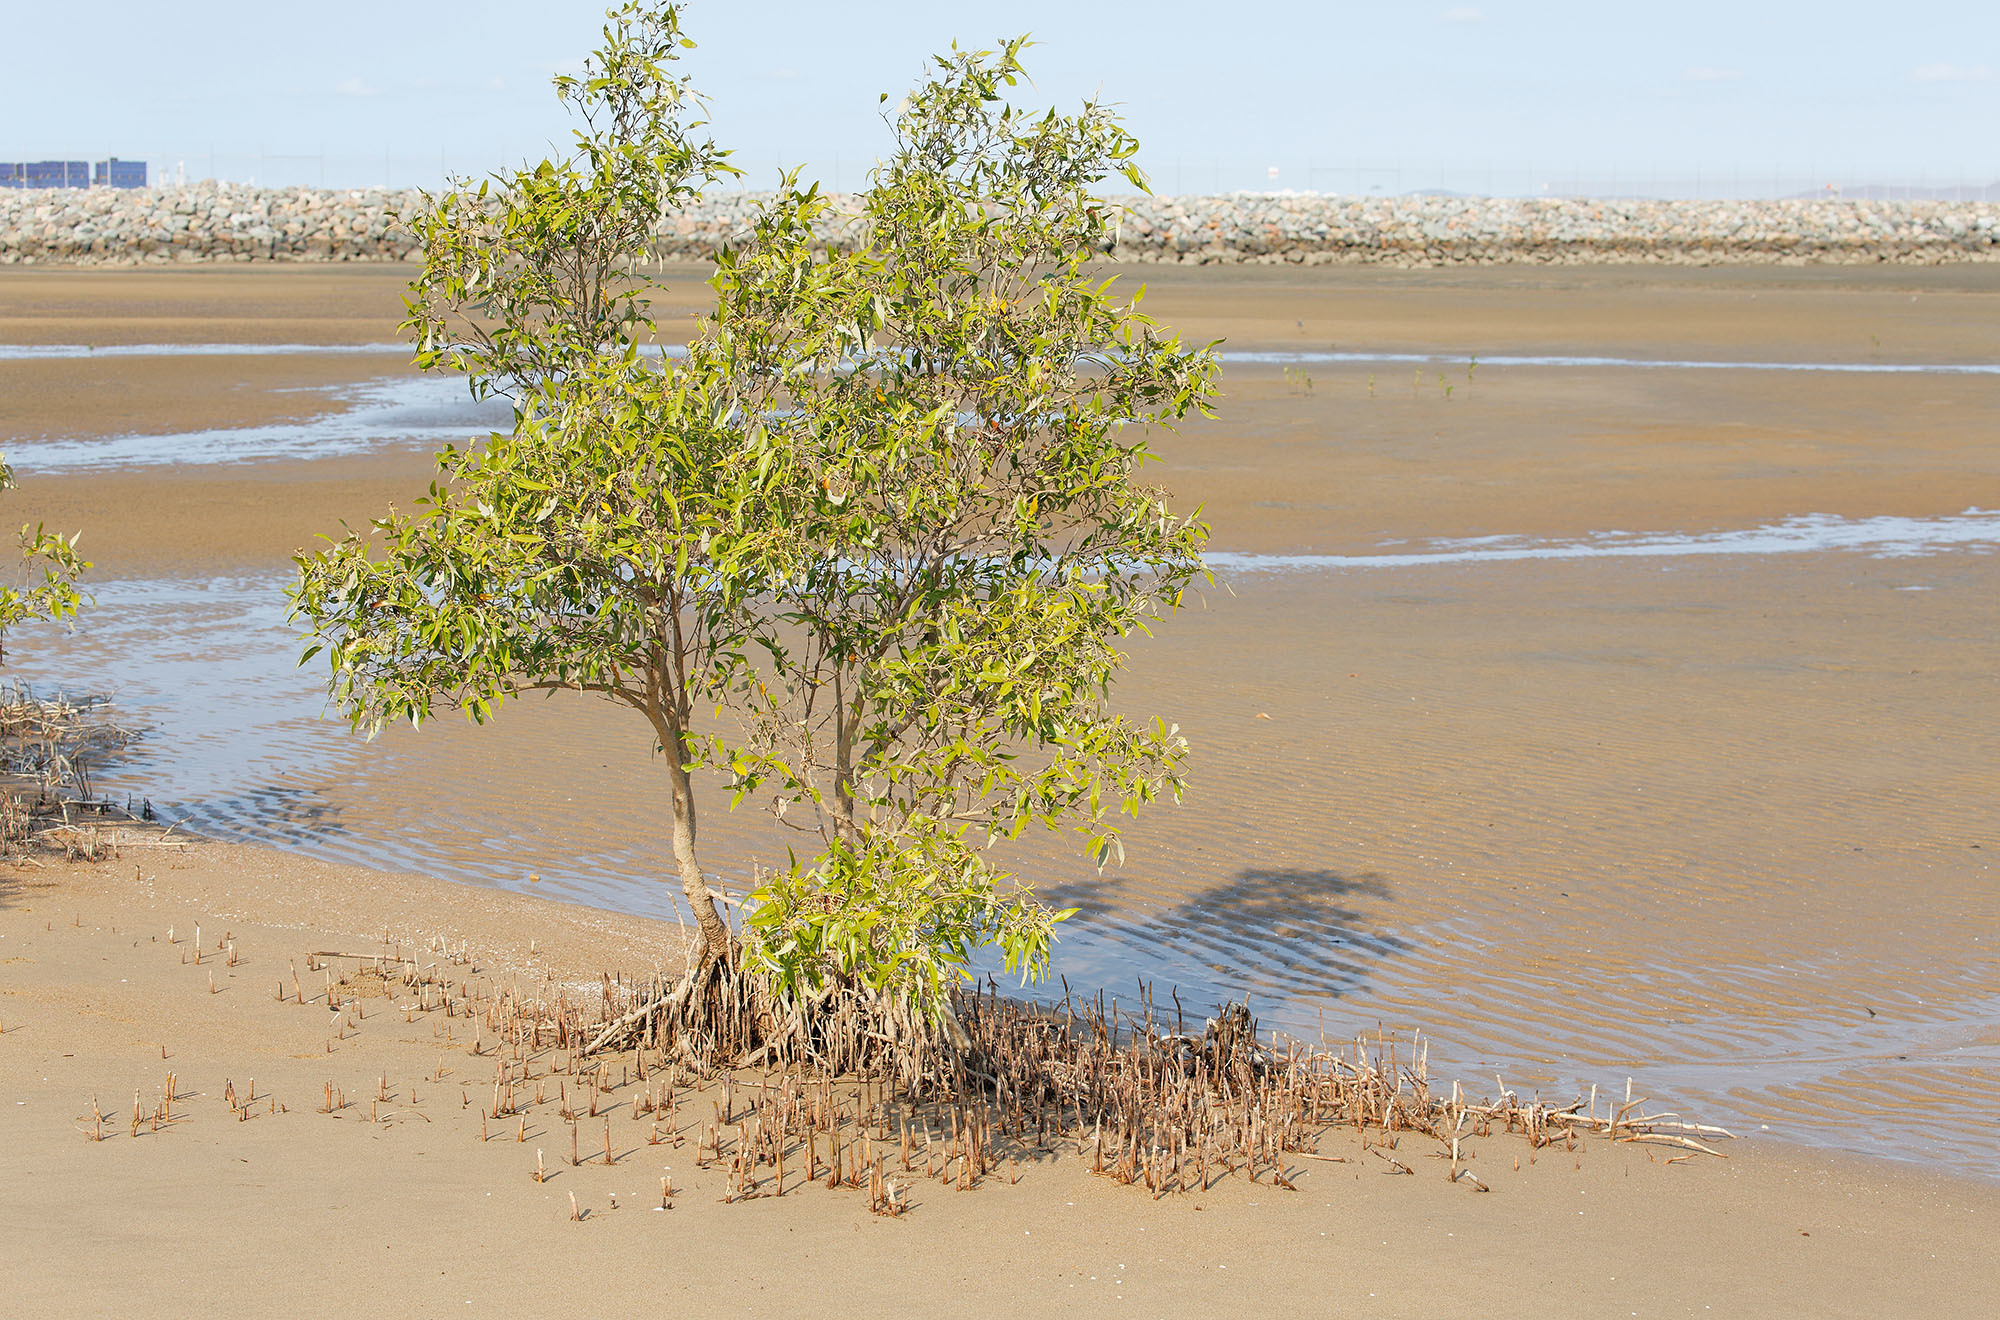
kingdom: Plantae
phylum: Tracheophyta
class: Magnoliopsida
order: Lamiales
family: Acanthaceae
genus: Avicennia
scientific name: Avicennia marina
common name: Gray mangrove
